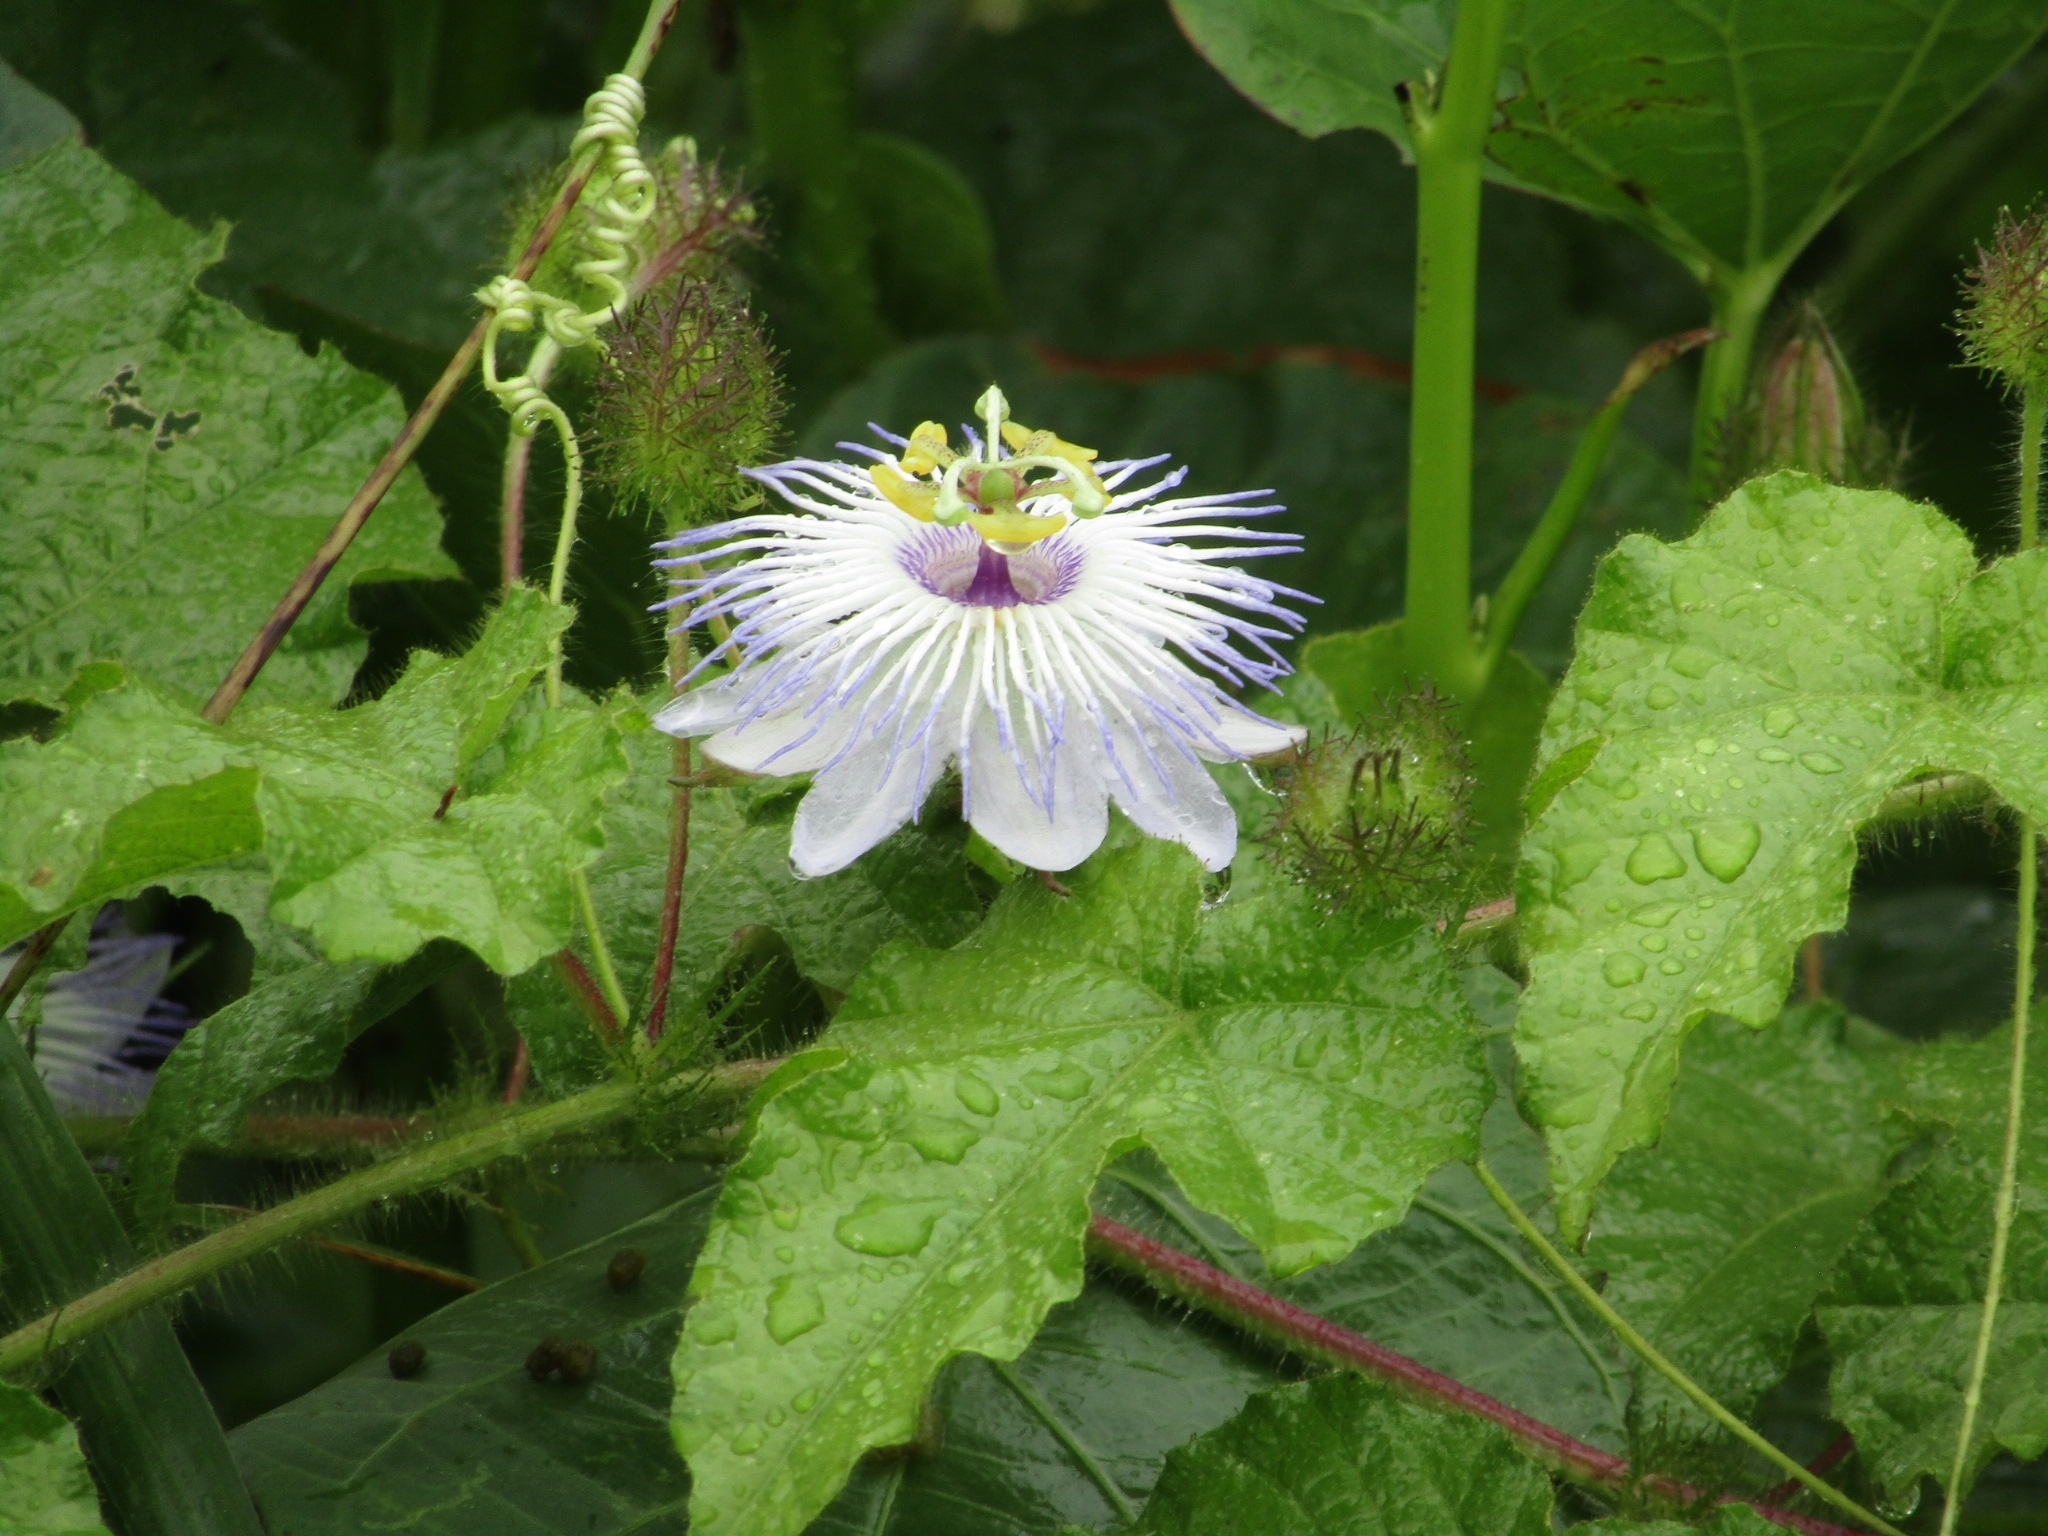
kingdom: Plantae
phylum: Tracheophyta
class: Magnoliopsida
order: Malpighiales
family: Passifloraceae
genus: Passiflora
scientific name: Passiflora foetida
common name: Fetid passionflower
